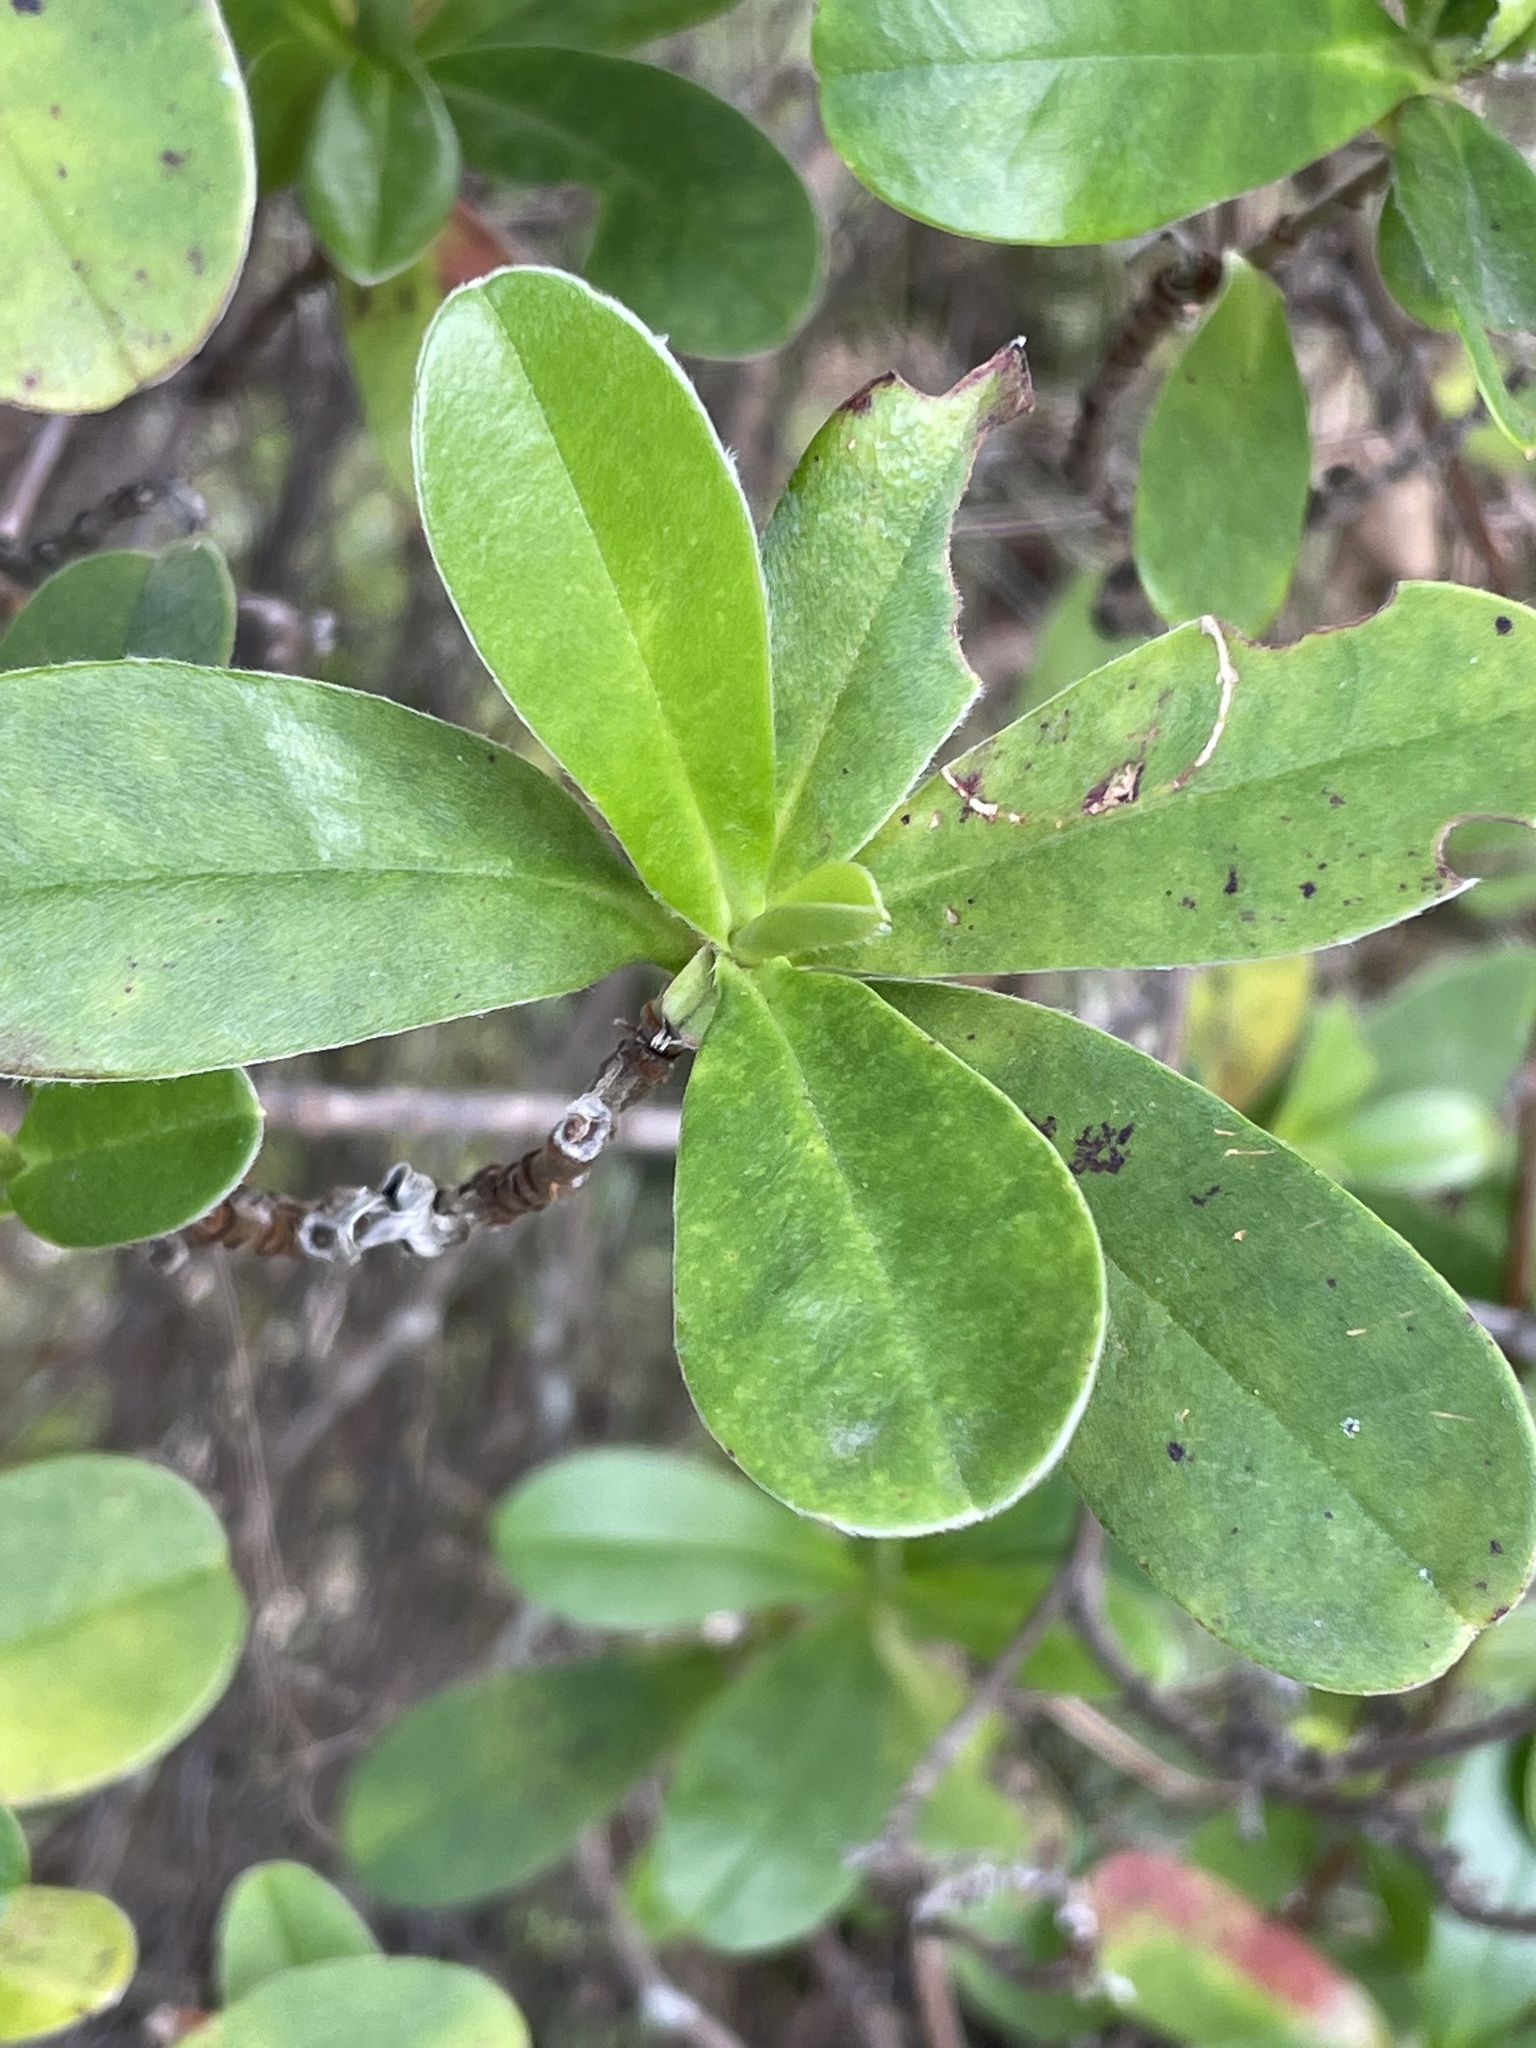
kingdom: Plantae
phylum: Tracheophyta
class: Magnoliopsida
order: Dilleniales
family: Dilleniaceae
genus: Hibbertia
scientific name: Hibbertia scandens
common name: Climbing guinea-flower
